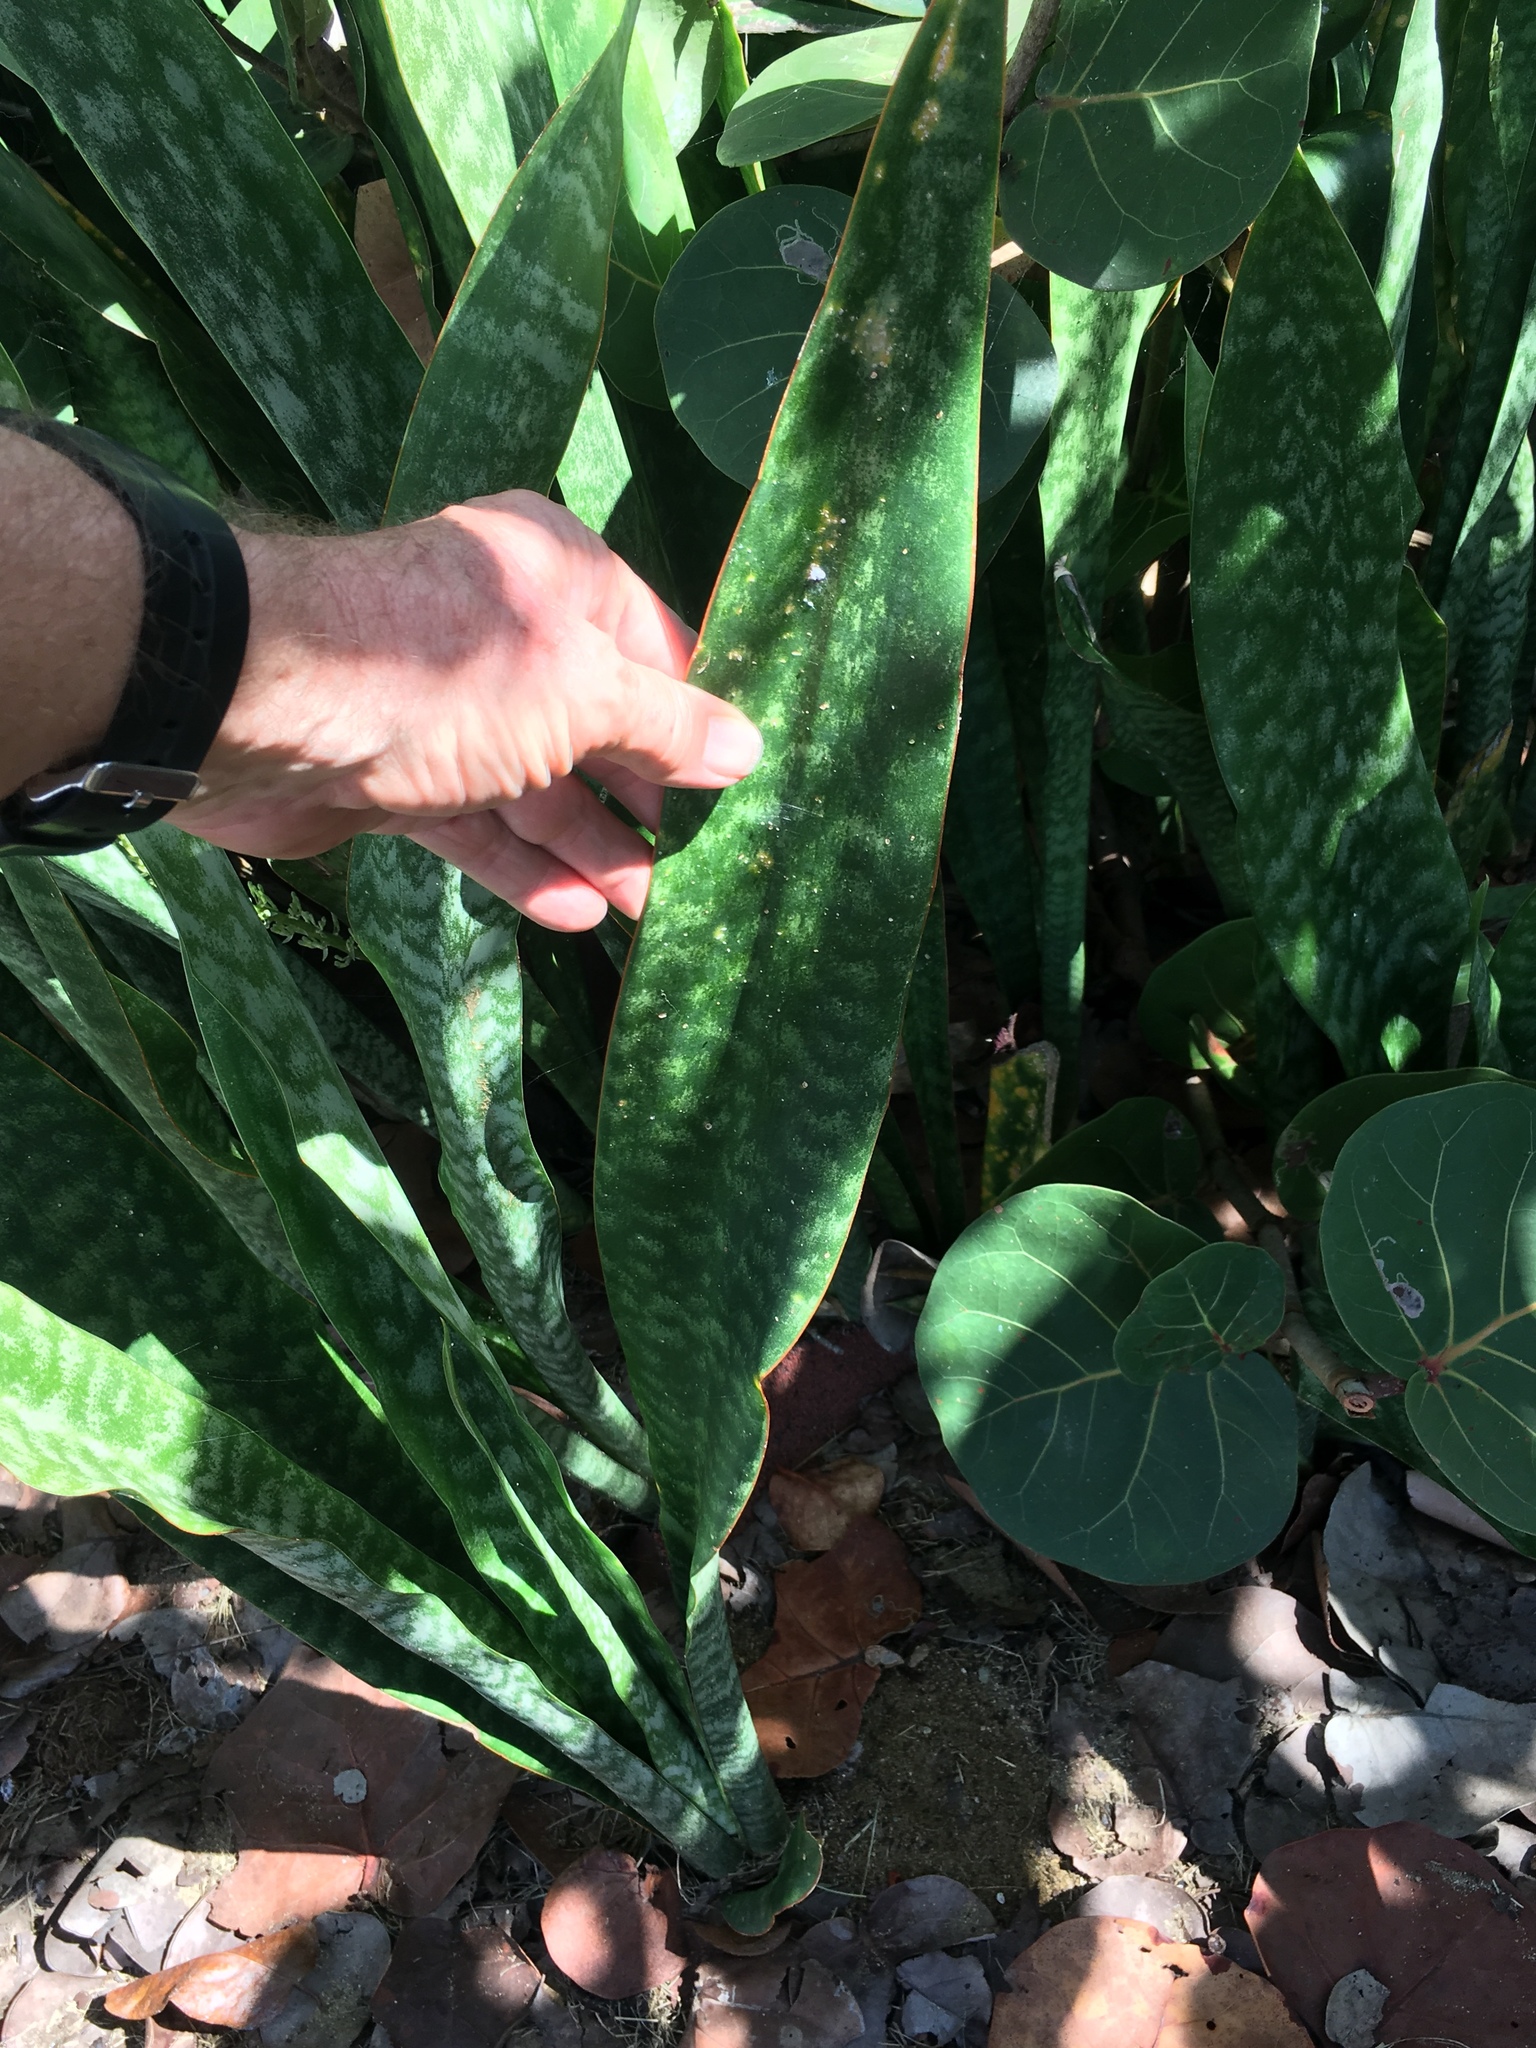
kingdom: Plantae
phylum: Tracheophyta
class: Liliopsida
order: Asparagales
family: Asparagaceae
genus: Dracaena
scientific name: Dracaena hyacinthoides
